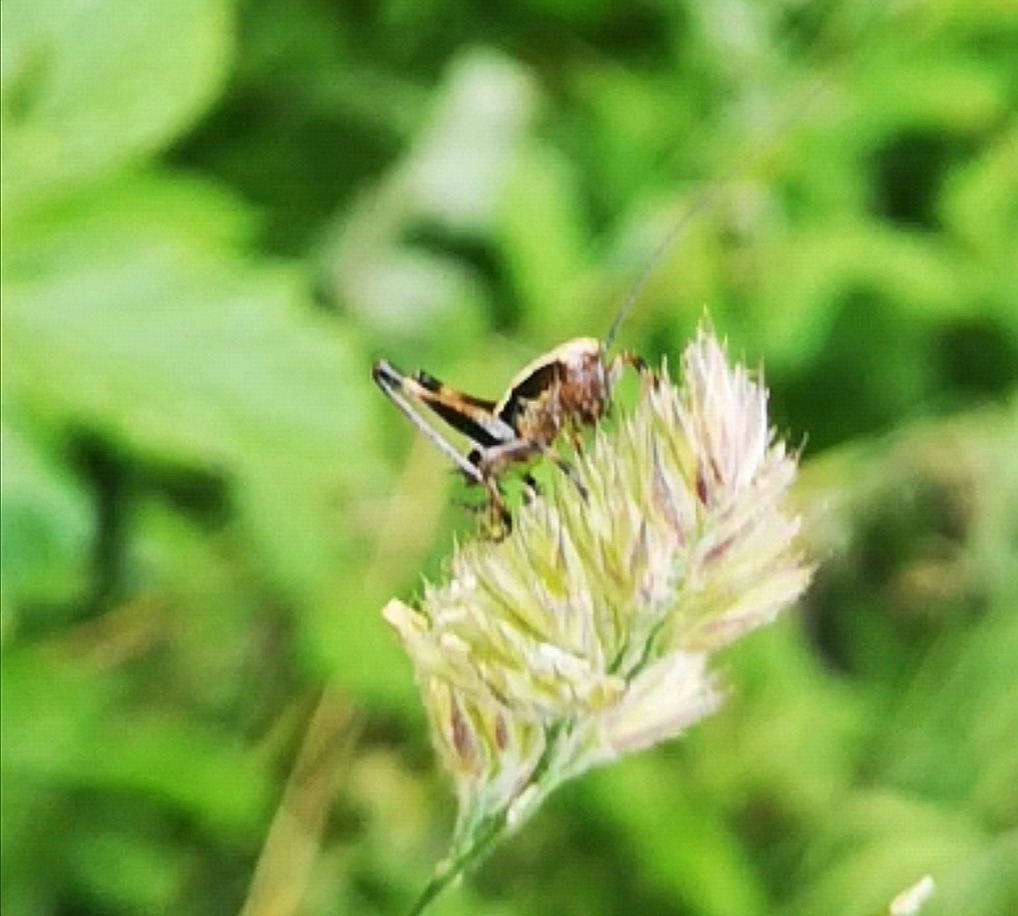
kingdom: Animalia
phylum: Arthropoda
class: Insecta
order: Orthoptera
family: Tettigoniidae
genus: Pholidoptera
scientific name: Pholidoptera griseoaptera
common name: Dark bush-cricket
